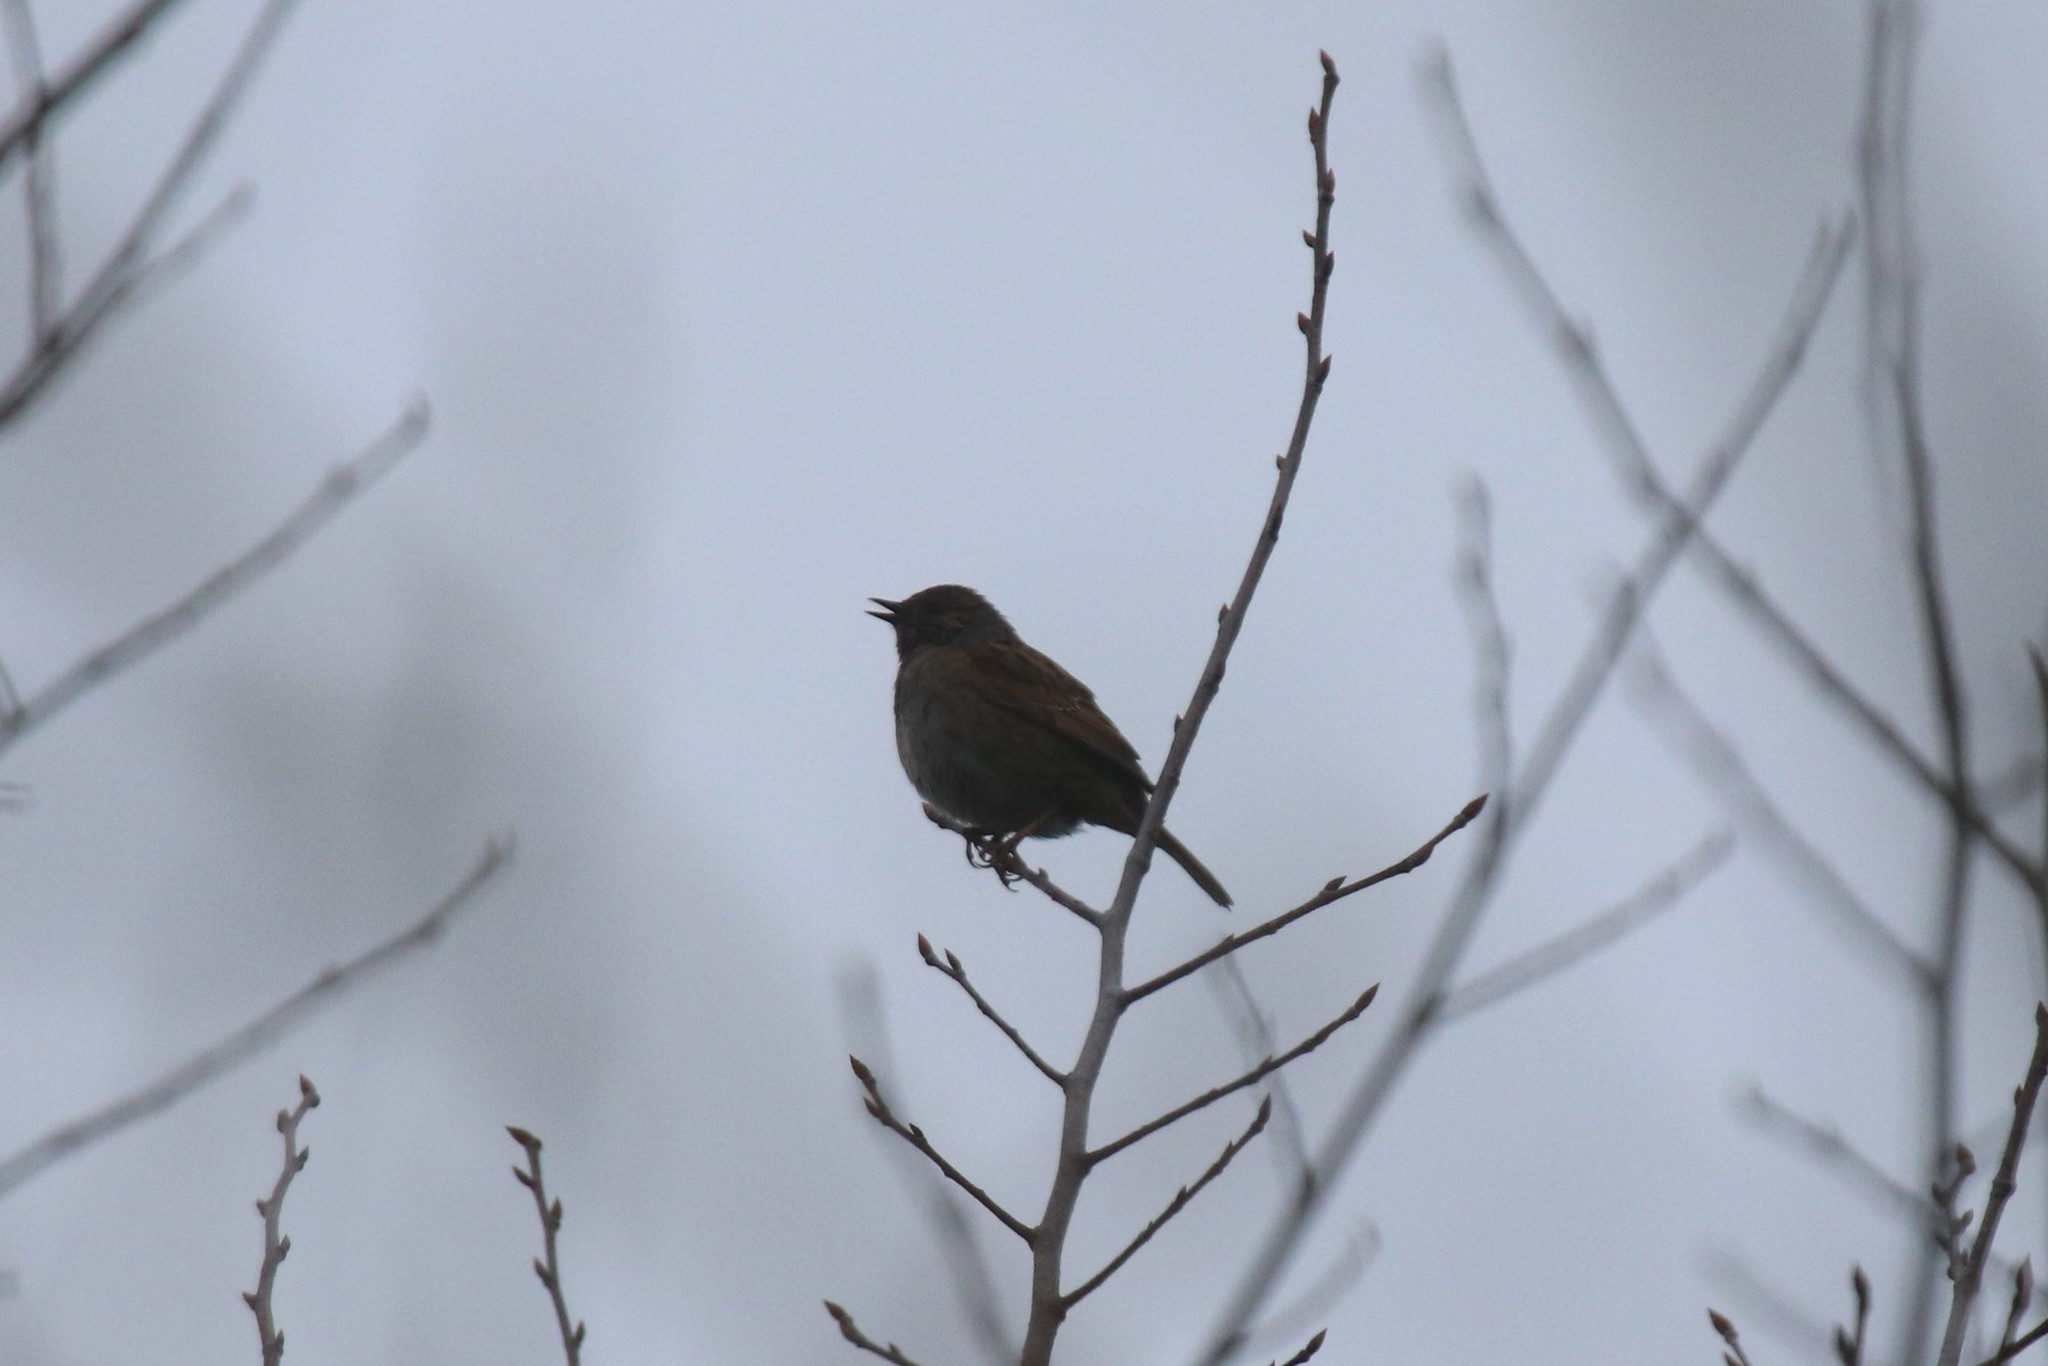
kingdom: Animalia
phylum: Chordata
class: Aves
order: Passeriformes
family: Prunellidae
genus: Prunella
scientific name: Prunella modularis
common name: Dunnock
